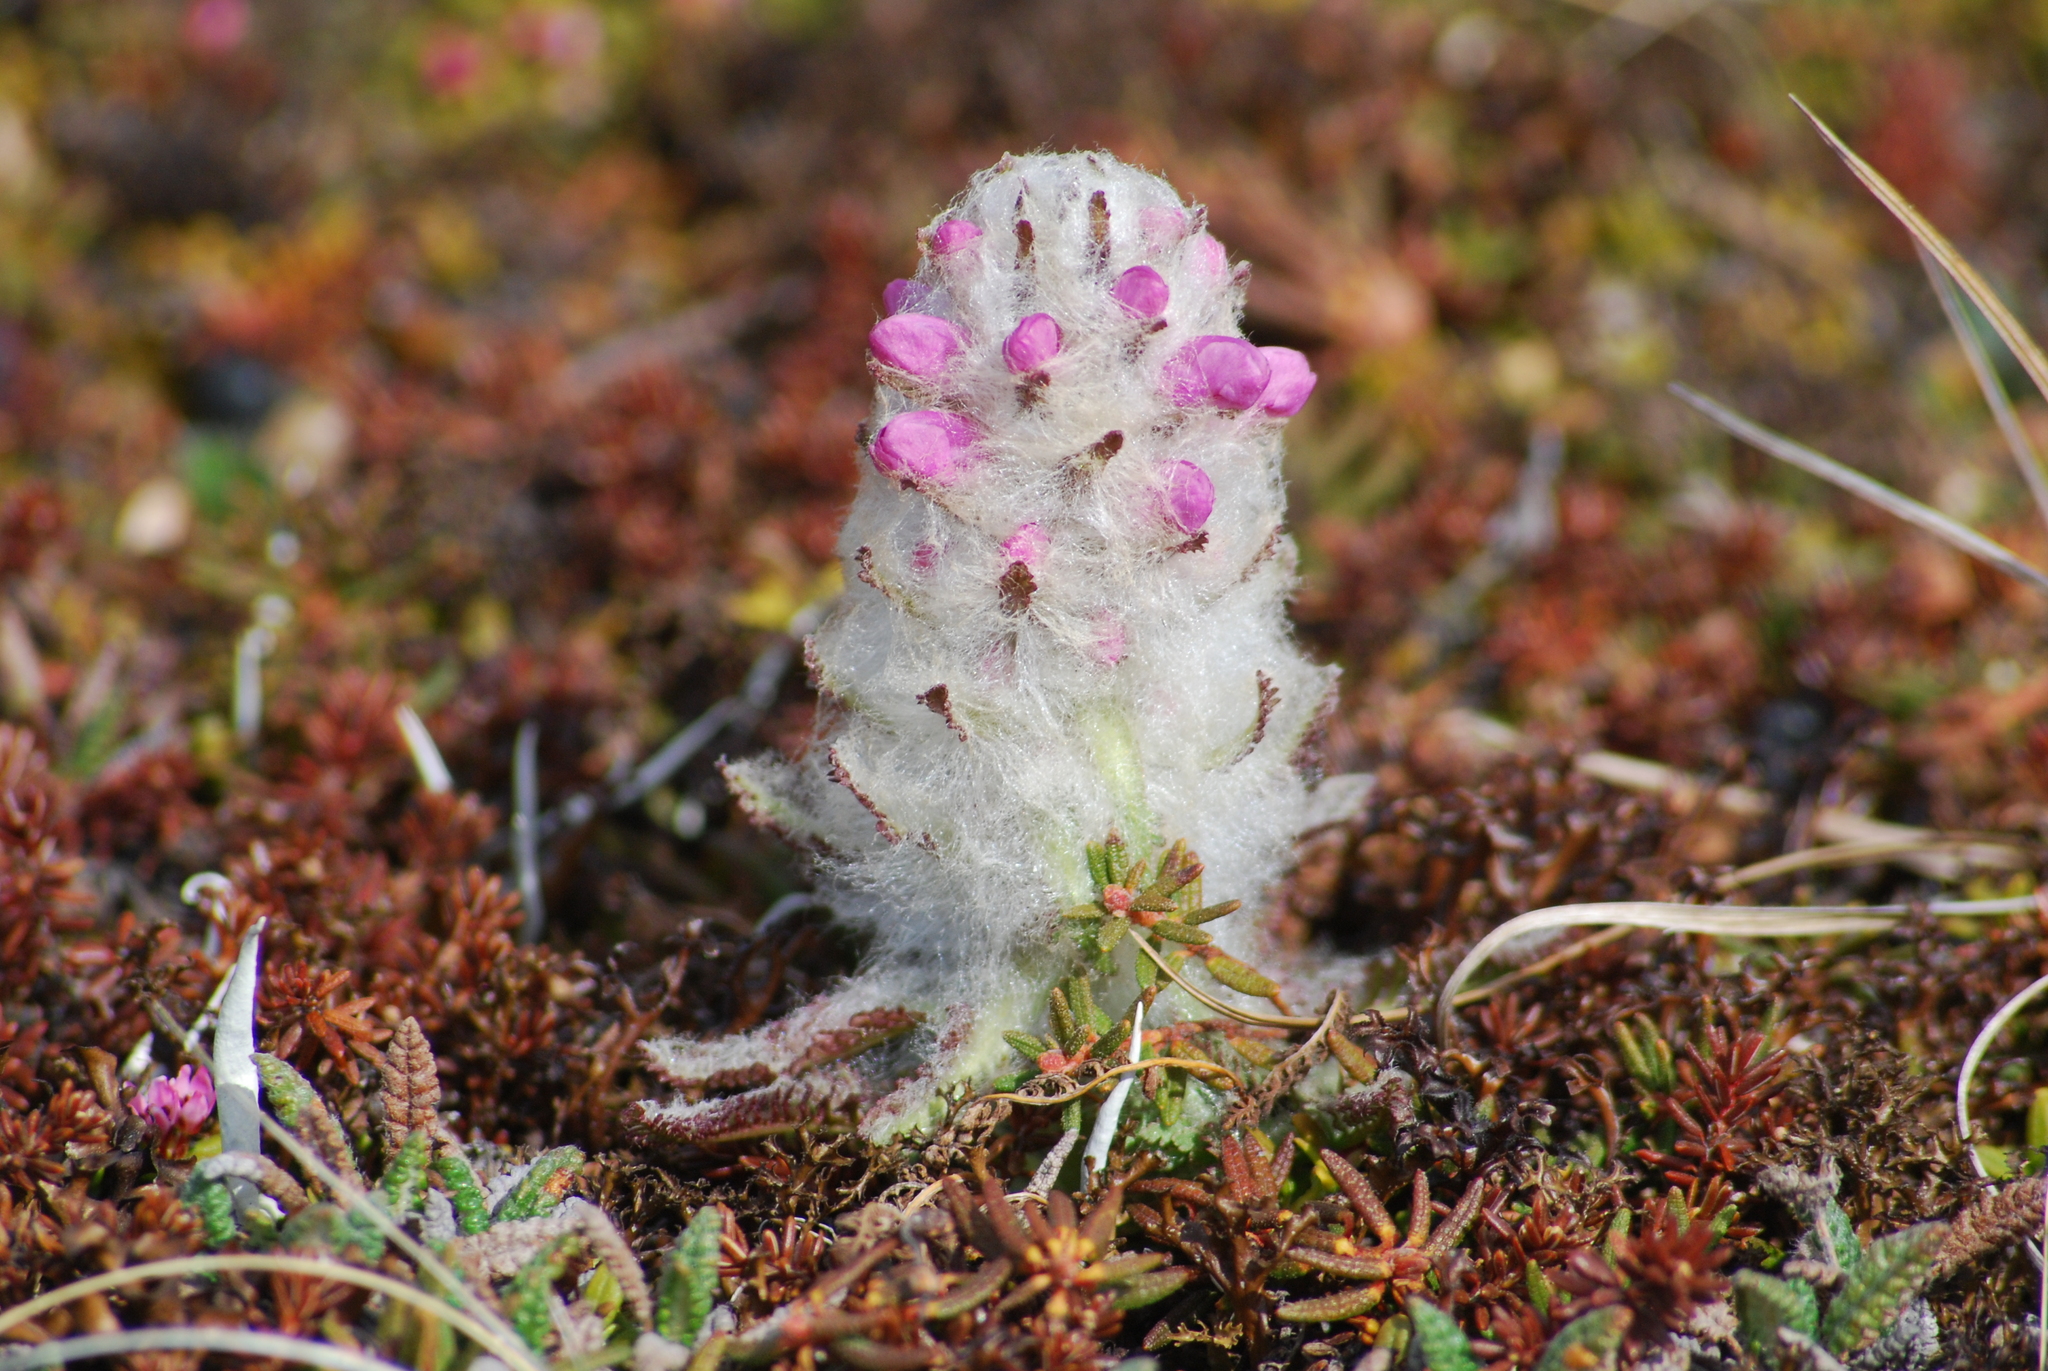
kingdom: Plantae
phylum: Tracheophyta
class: Magnoliopsida
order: Lamiales
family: Orobanchaceae
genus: Pedicularis
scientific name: Pedicularis lanata
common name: Woolly lousewort
